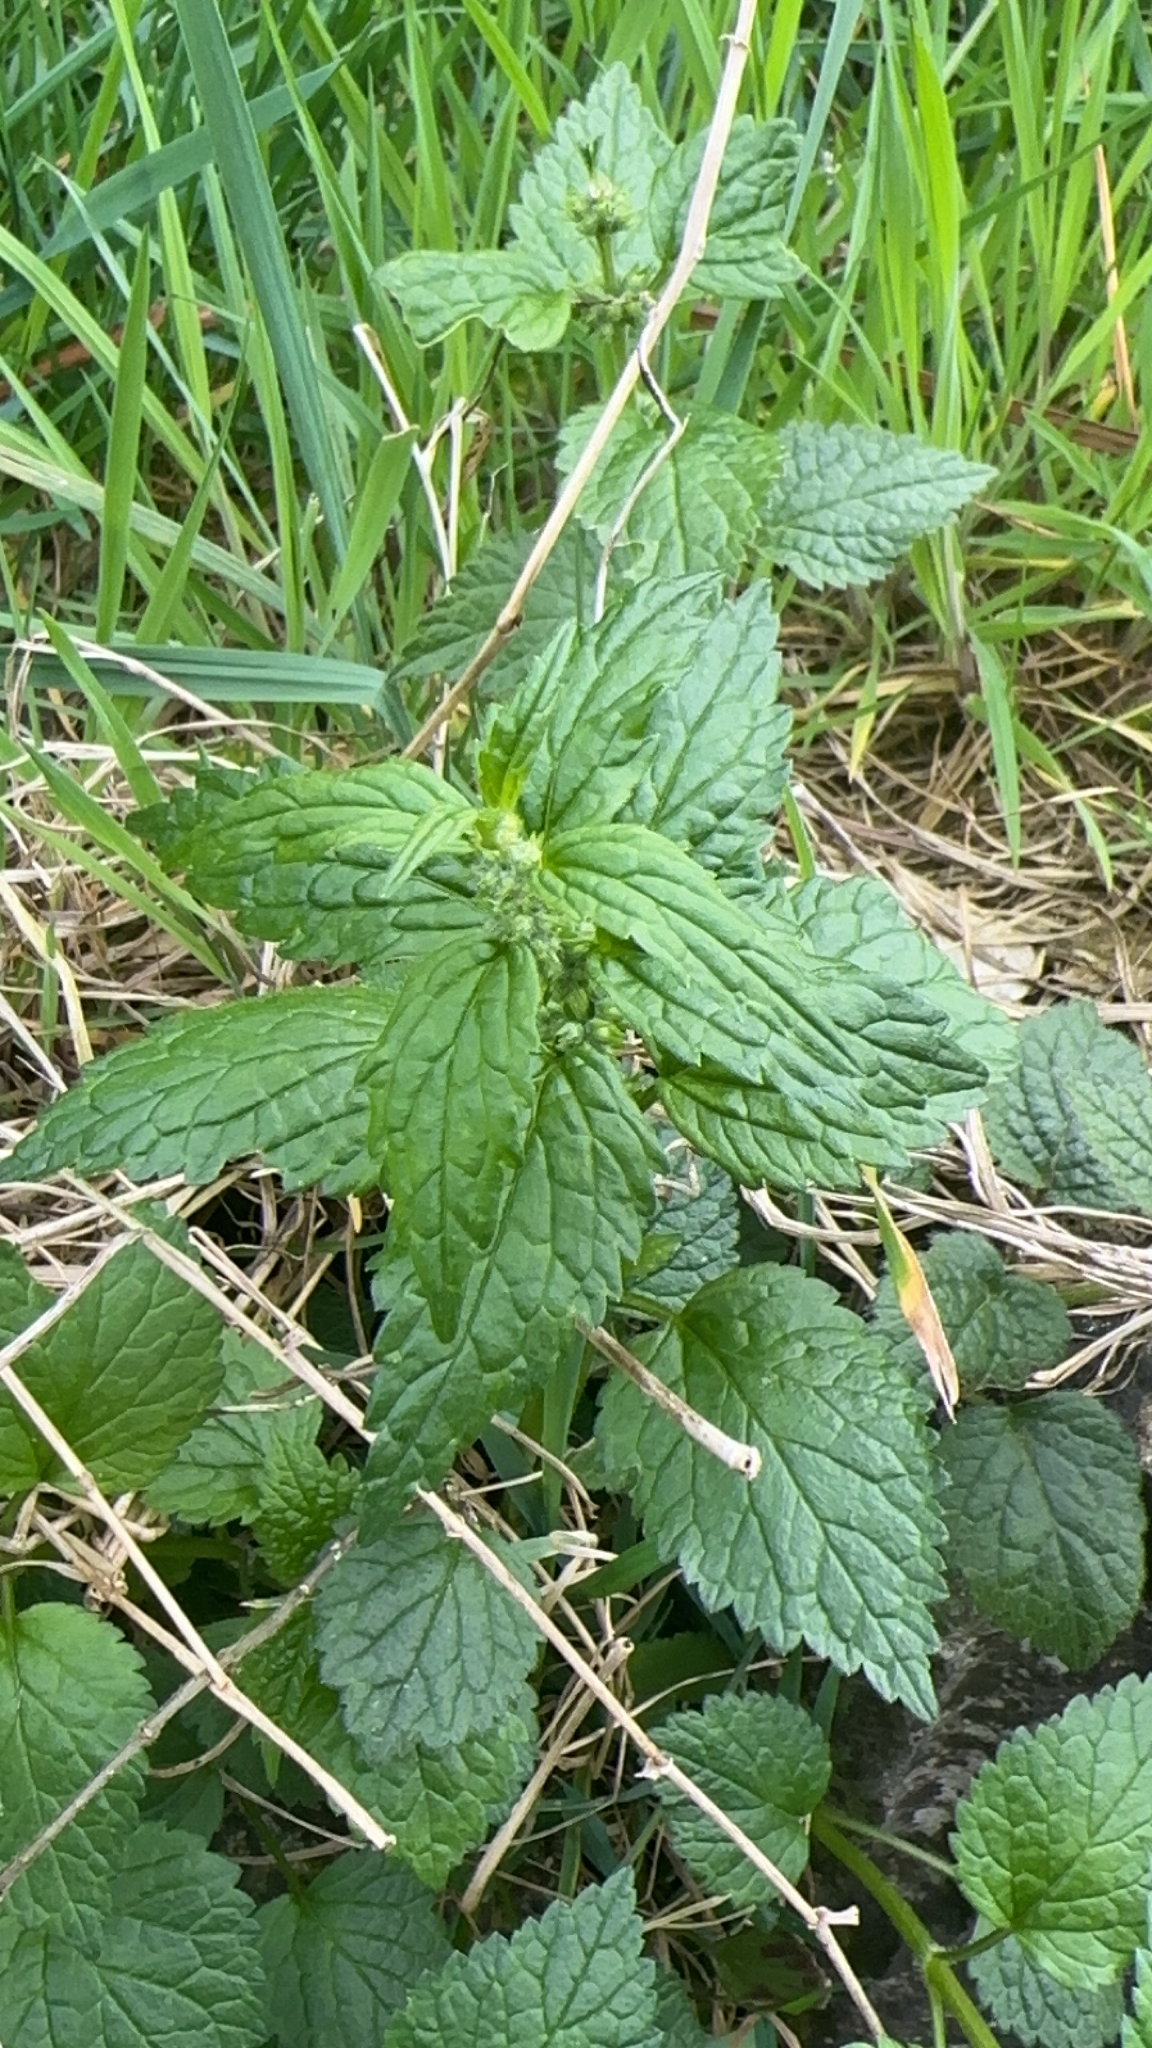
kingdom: Plantae
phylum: Tracheophyta
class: Magnoliopsida
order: Lamiales
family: Lamiaceae
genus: Lamium
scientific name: Lamium galeobdolon
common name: Yellow archangel
